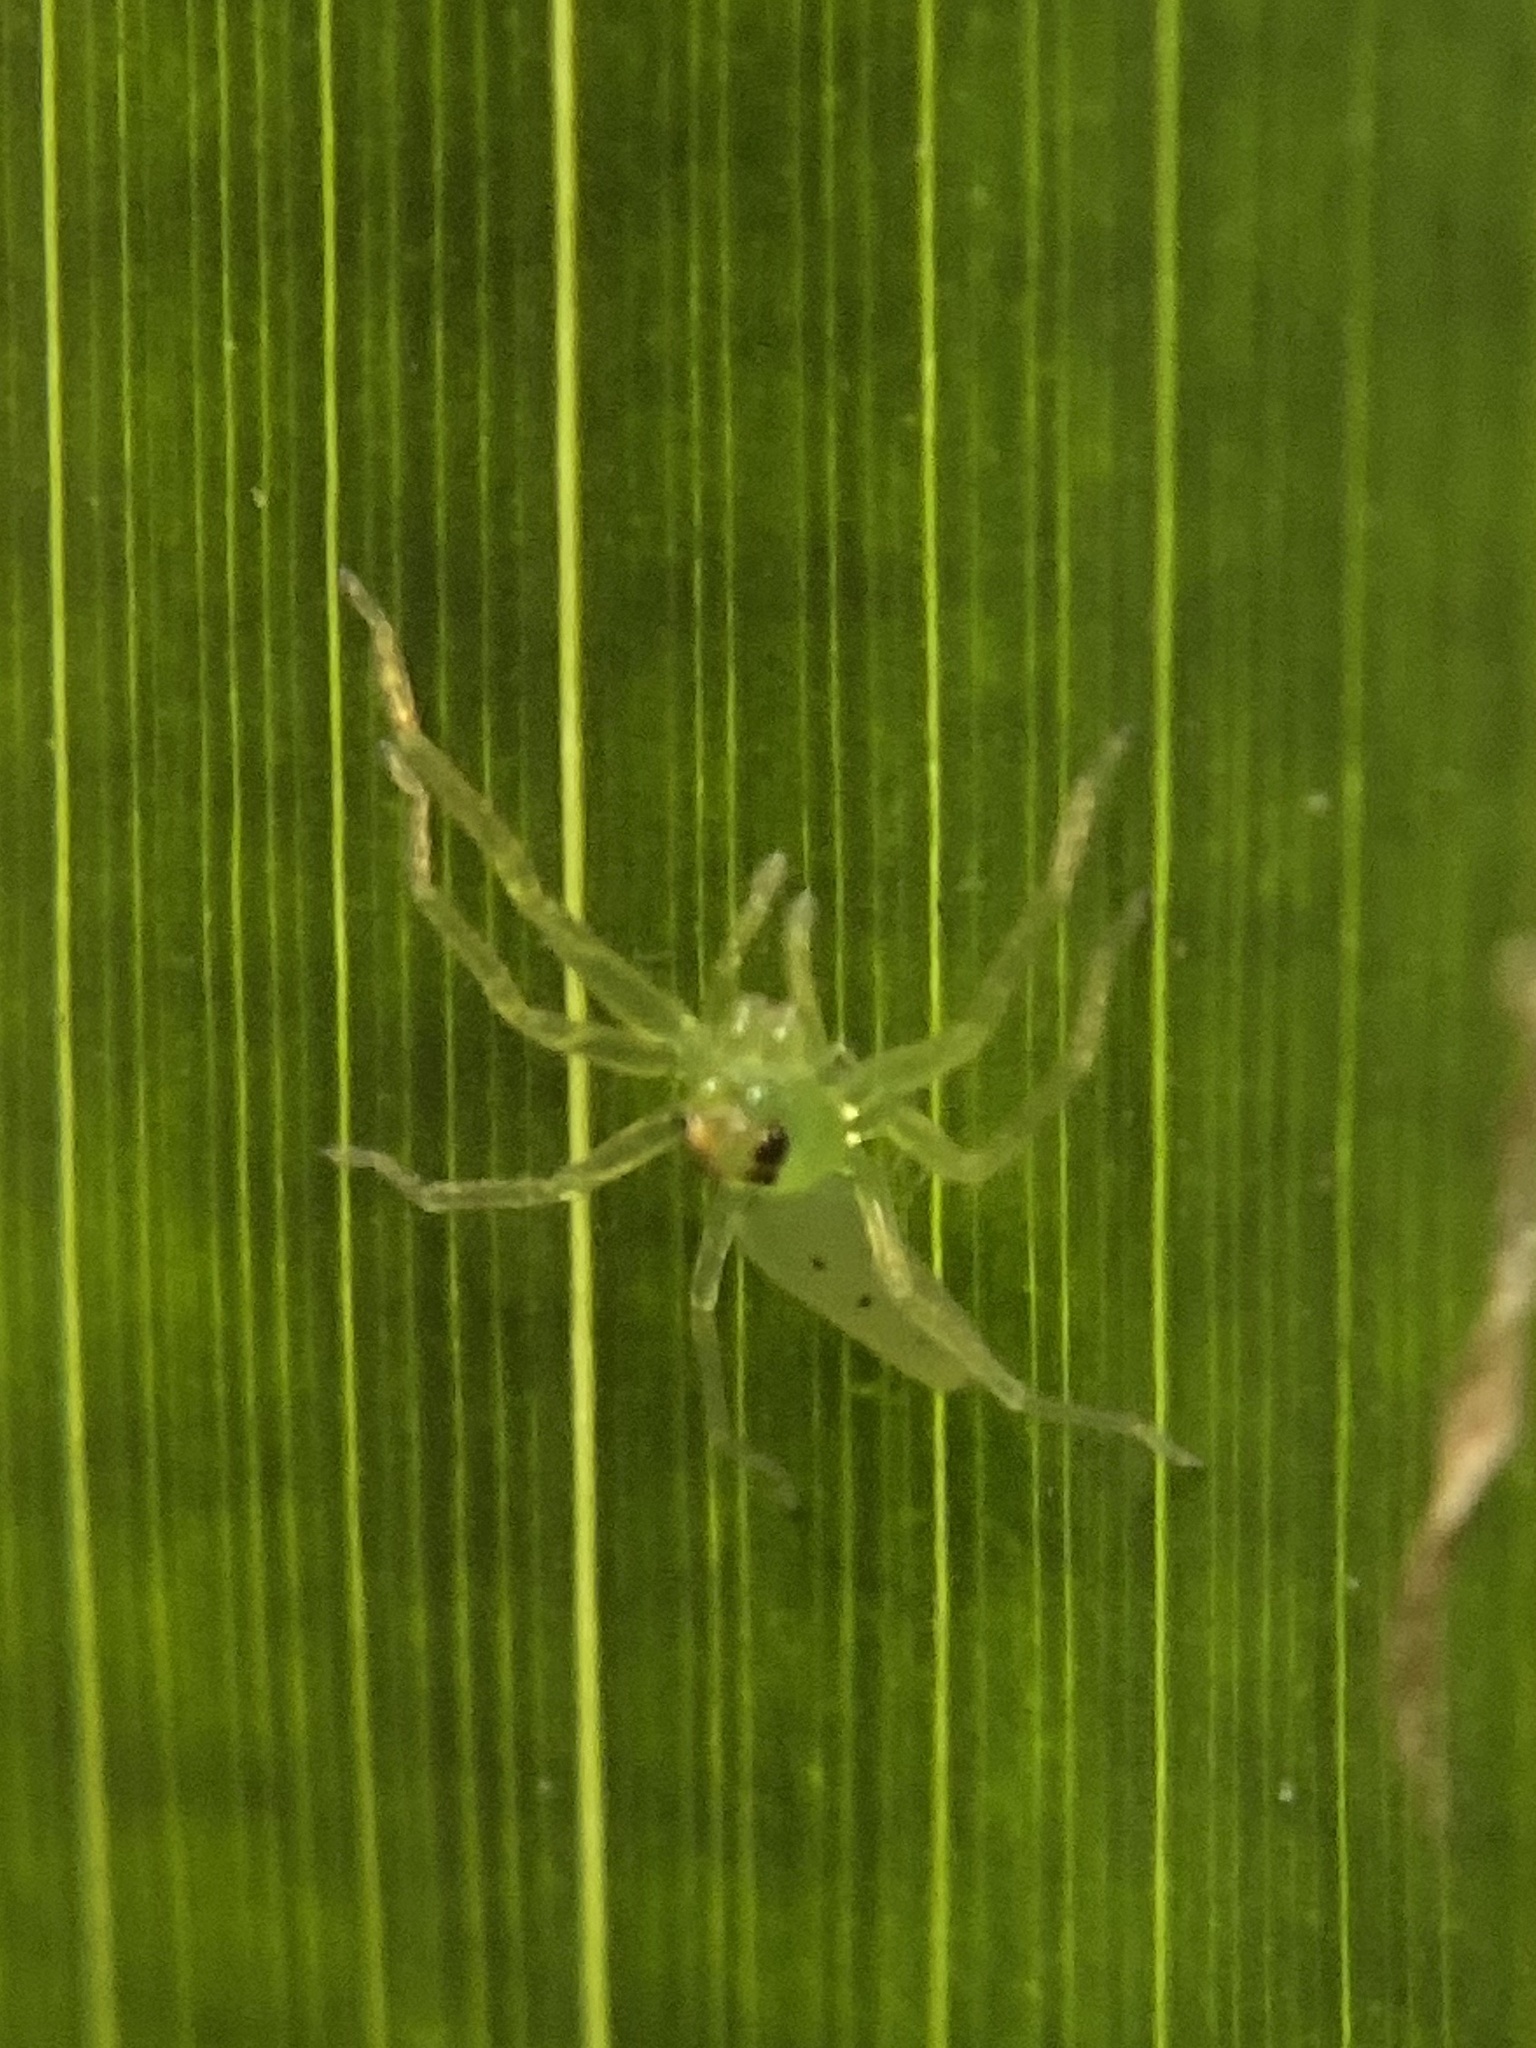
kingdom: Animalia
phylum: Arthropoda
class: Arachnida
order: Araneae
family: Salticidae
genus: Lyssomanes
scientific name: Lyssomanes viridis
